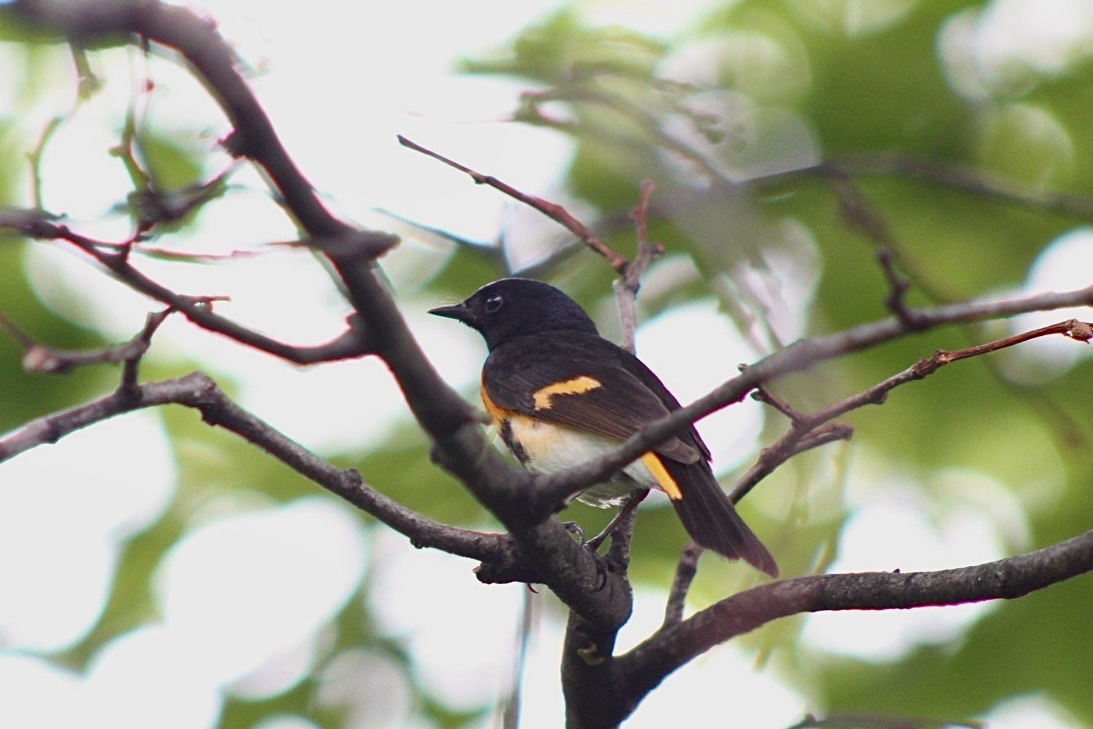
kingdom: Animalia
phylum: Chordata
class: Aves
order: Passeriformes
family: Parulidae
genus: Setophaga
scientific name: Setophaga ruticilla
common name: American redstart
